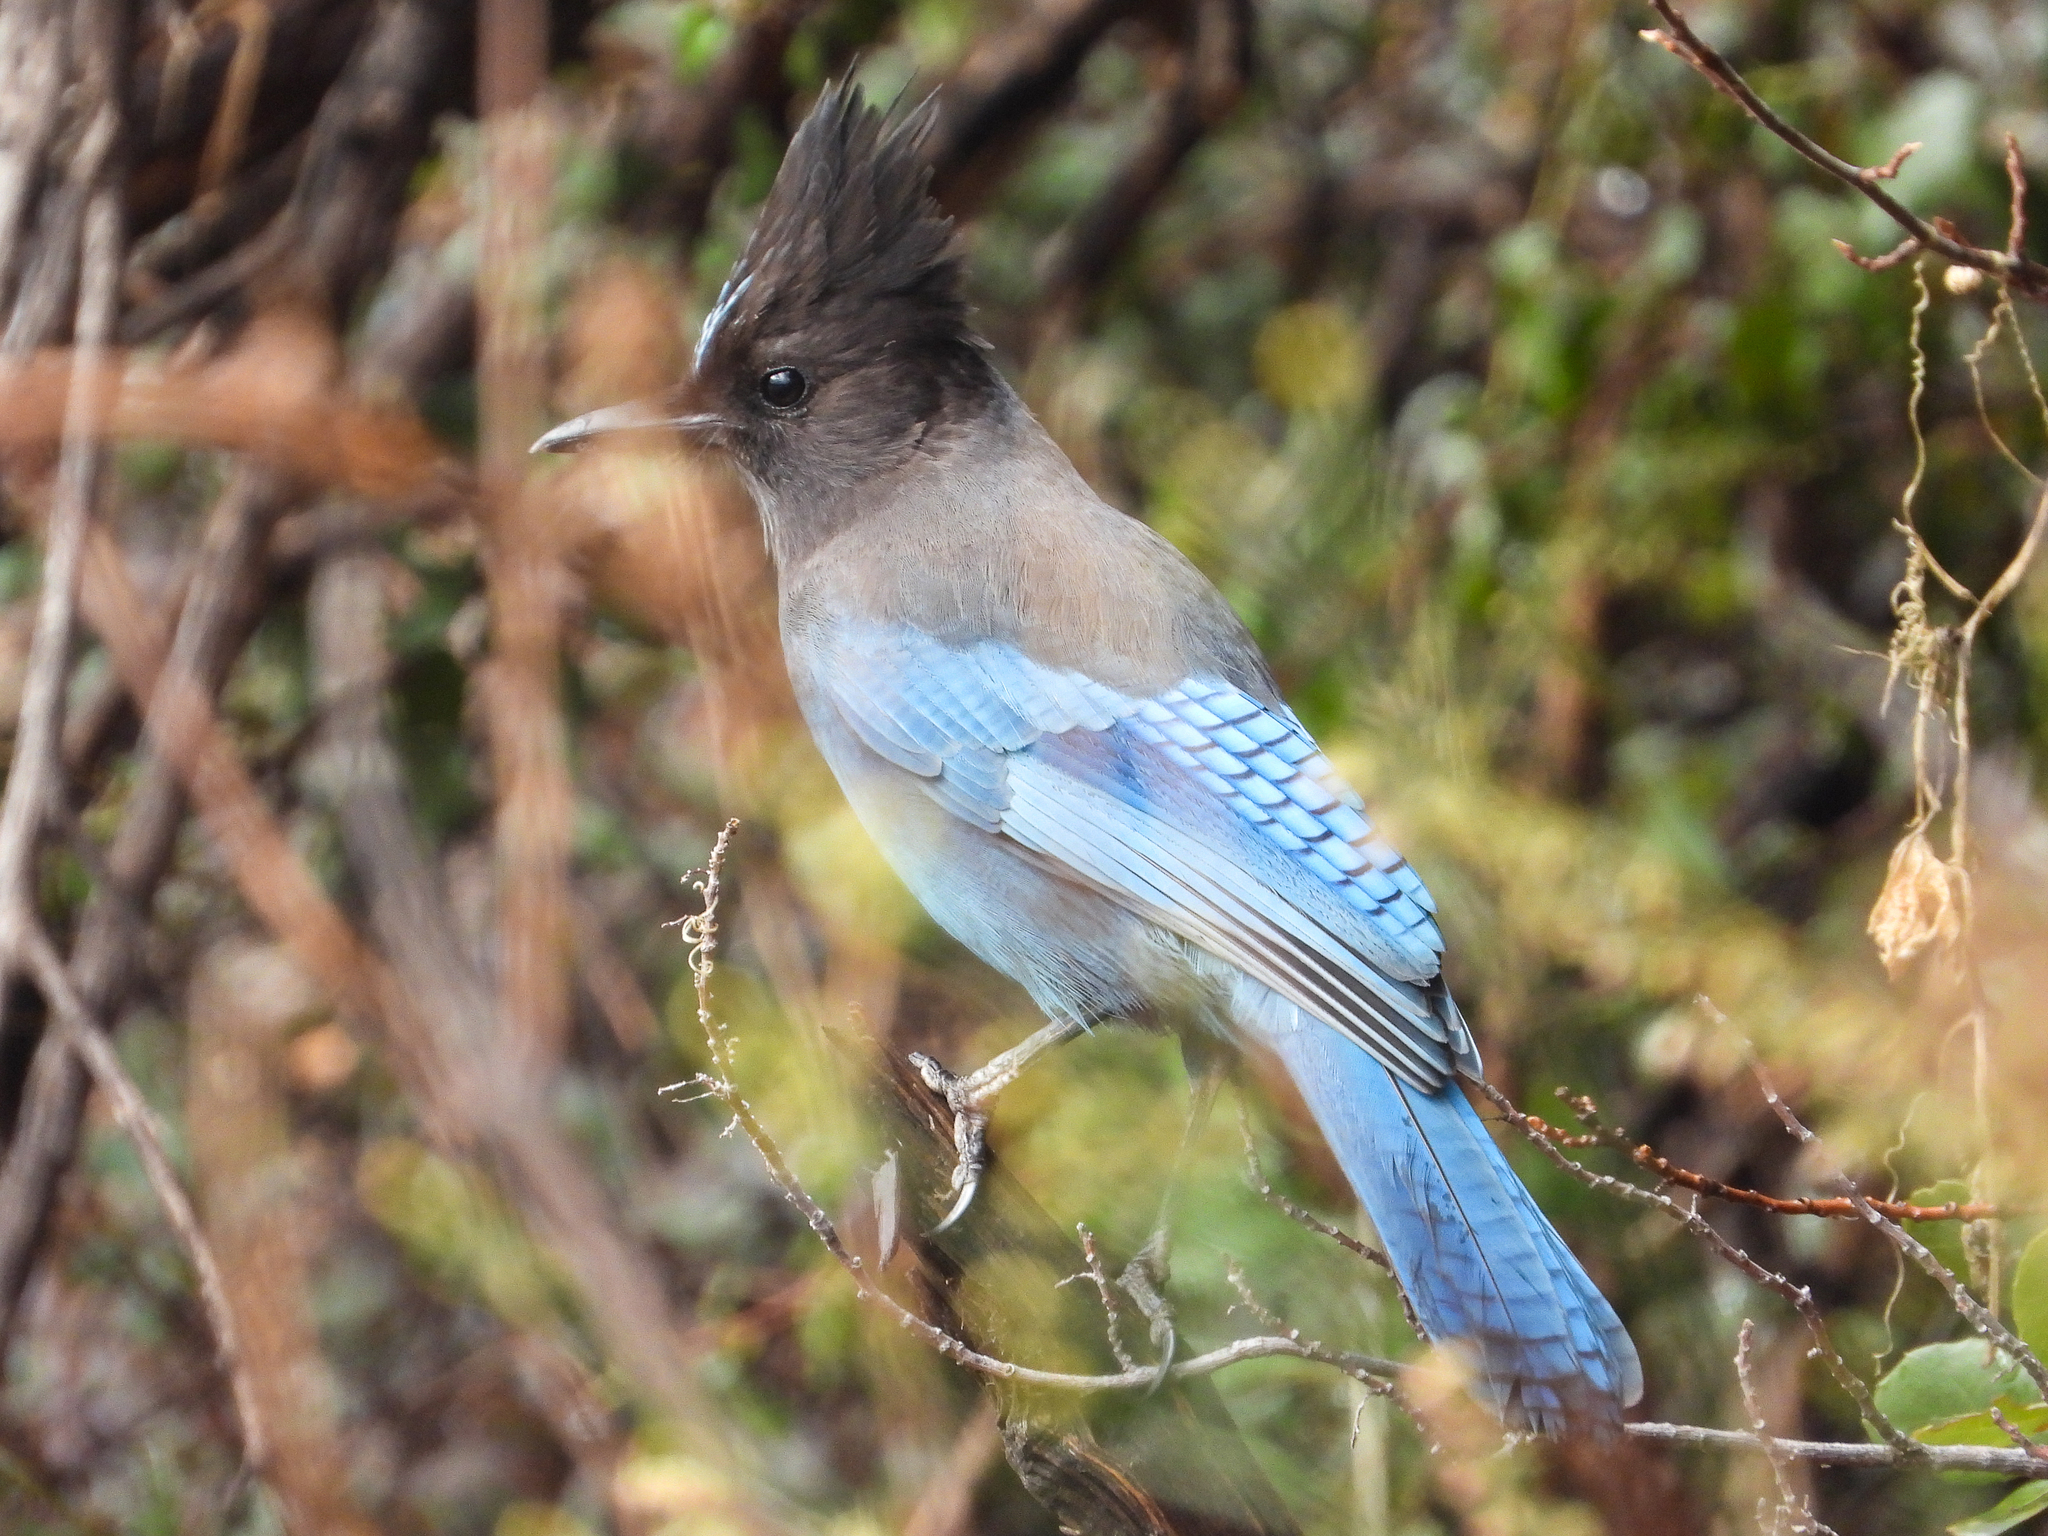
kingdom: Animalia
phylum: Chordata
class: Aves
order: Passeriformes
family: Corvidae
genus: Cyanocitta
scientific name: Cyanocitta stelleri
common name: Steller's jay
